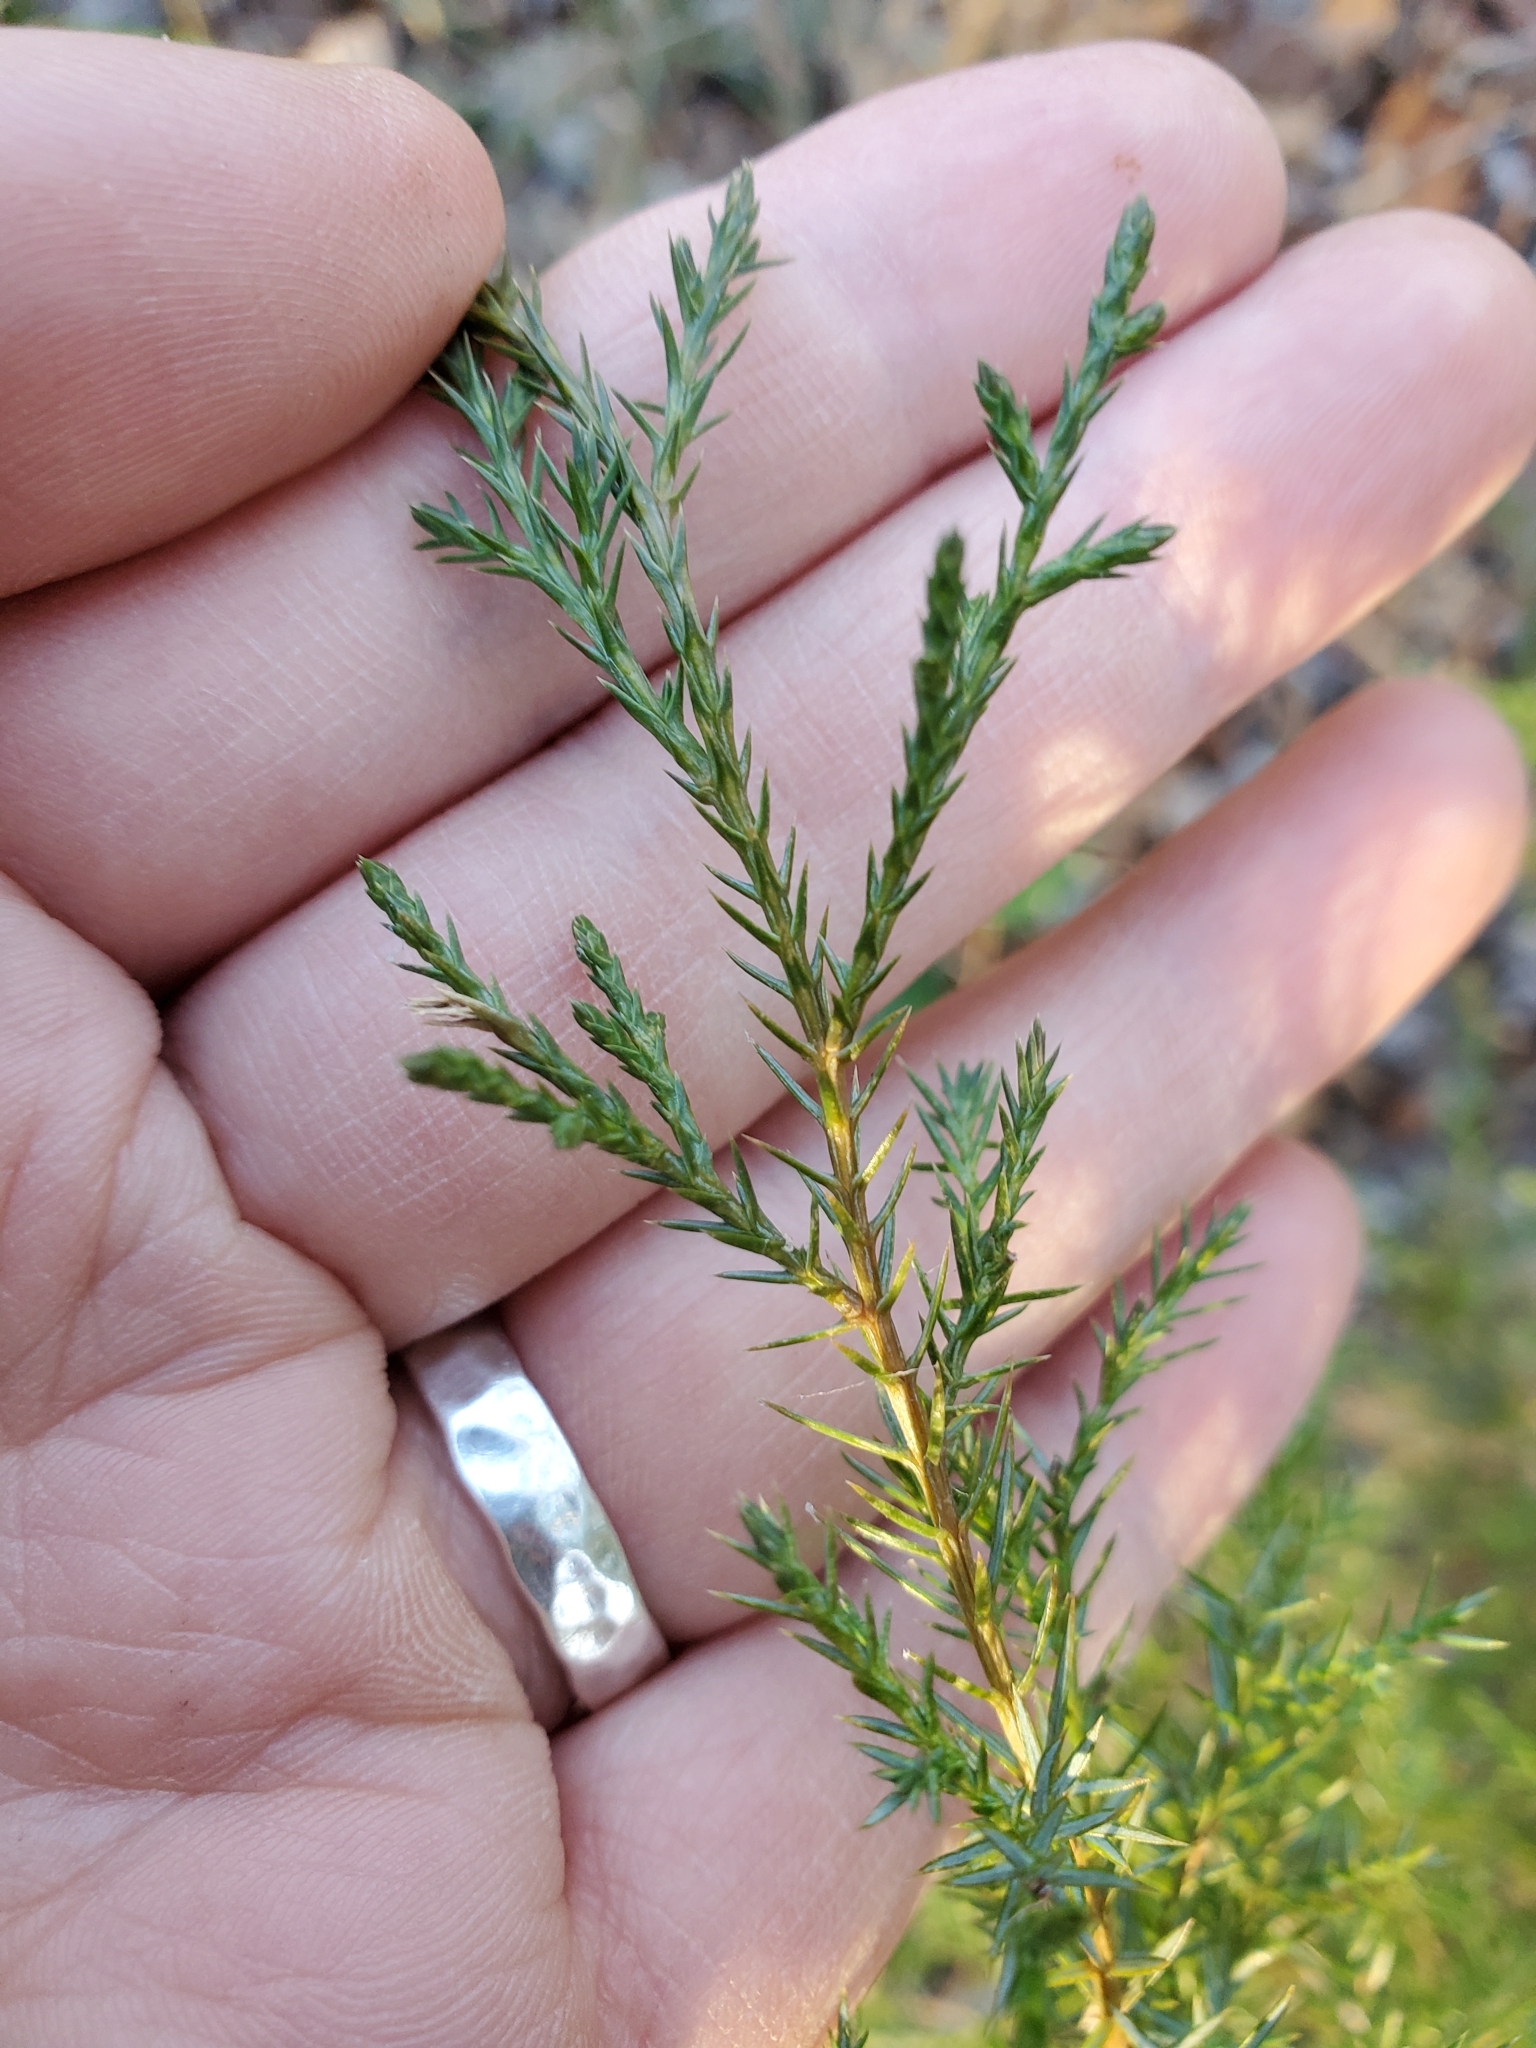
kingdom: Plantae
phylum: Tracheophyta
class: Pinopsida
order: Pinales
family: Cupressaceae
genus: Juniperus
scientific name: Juniperus virginiana
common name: Red juniper
